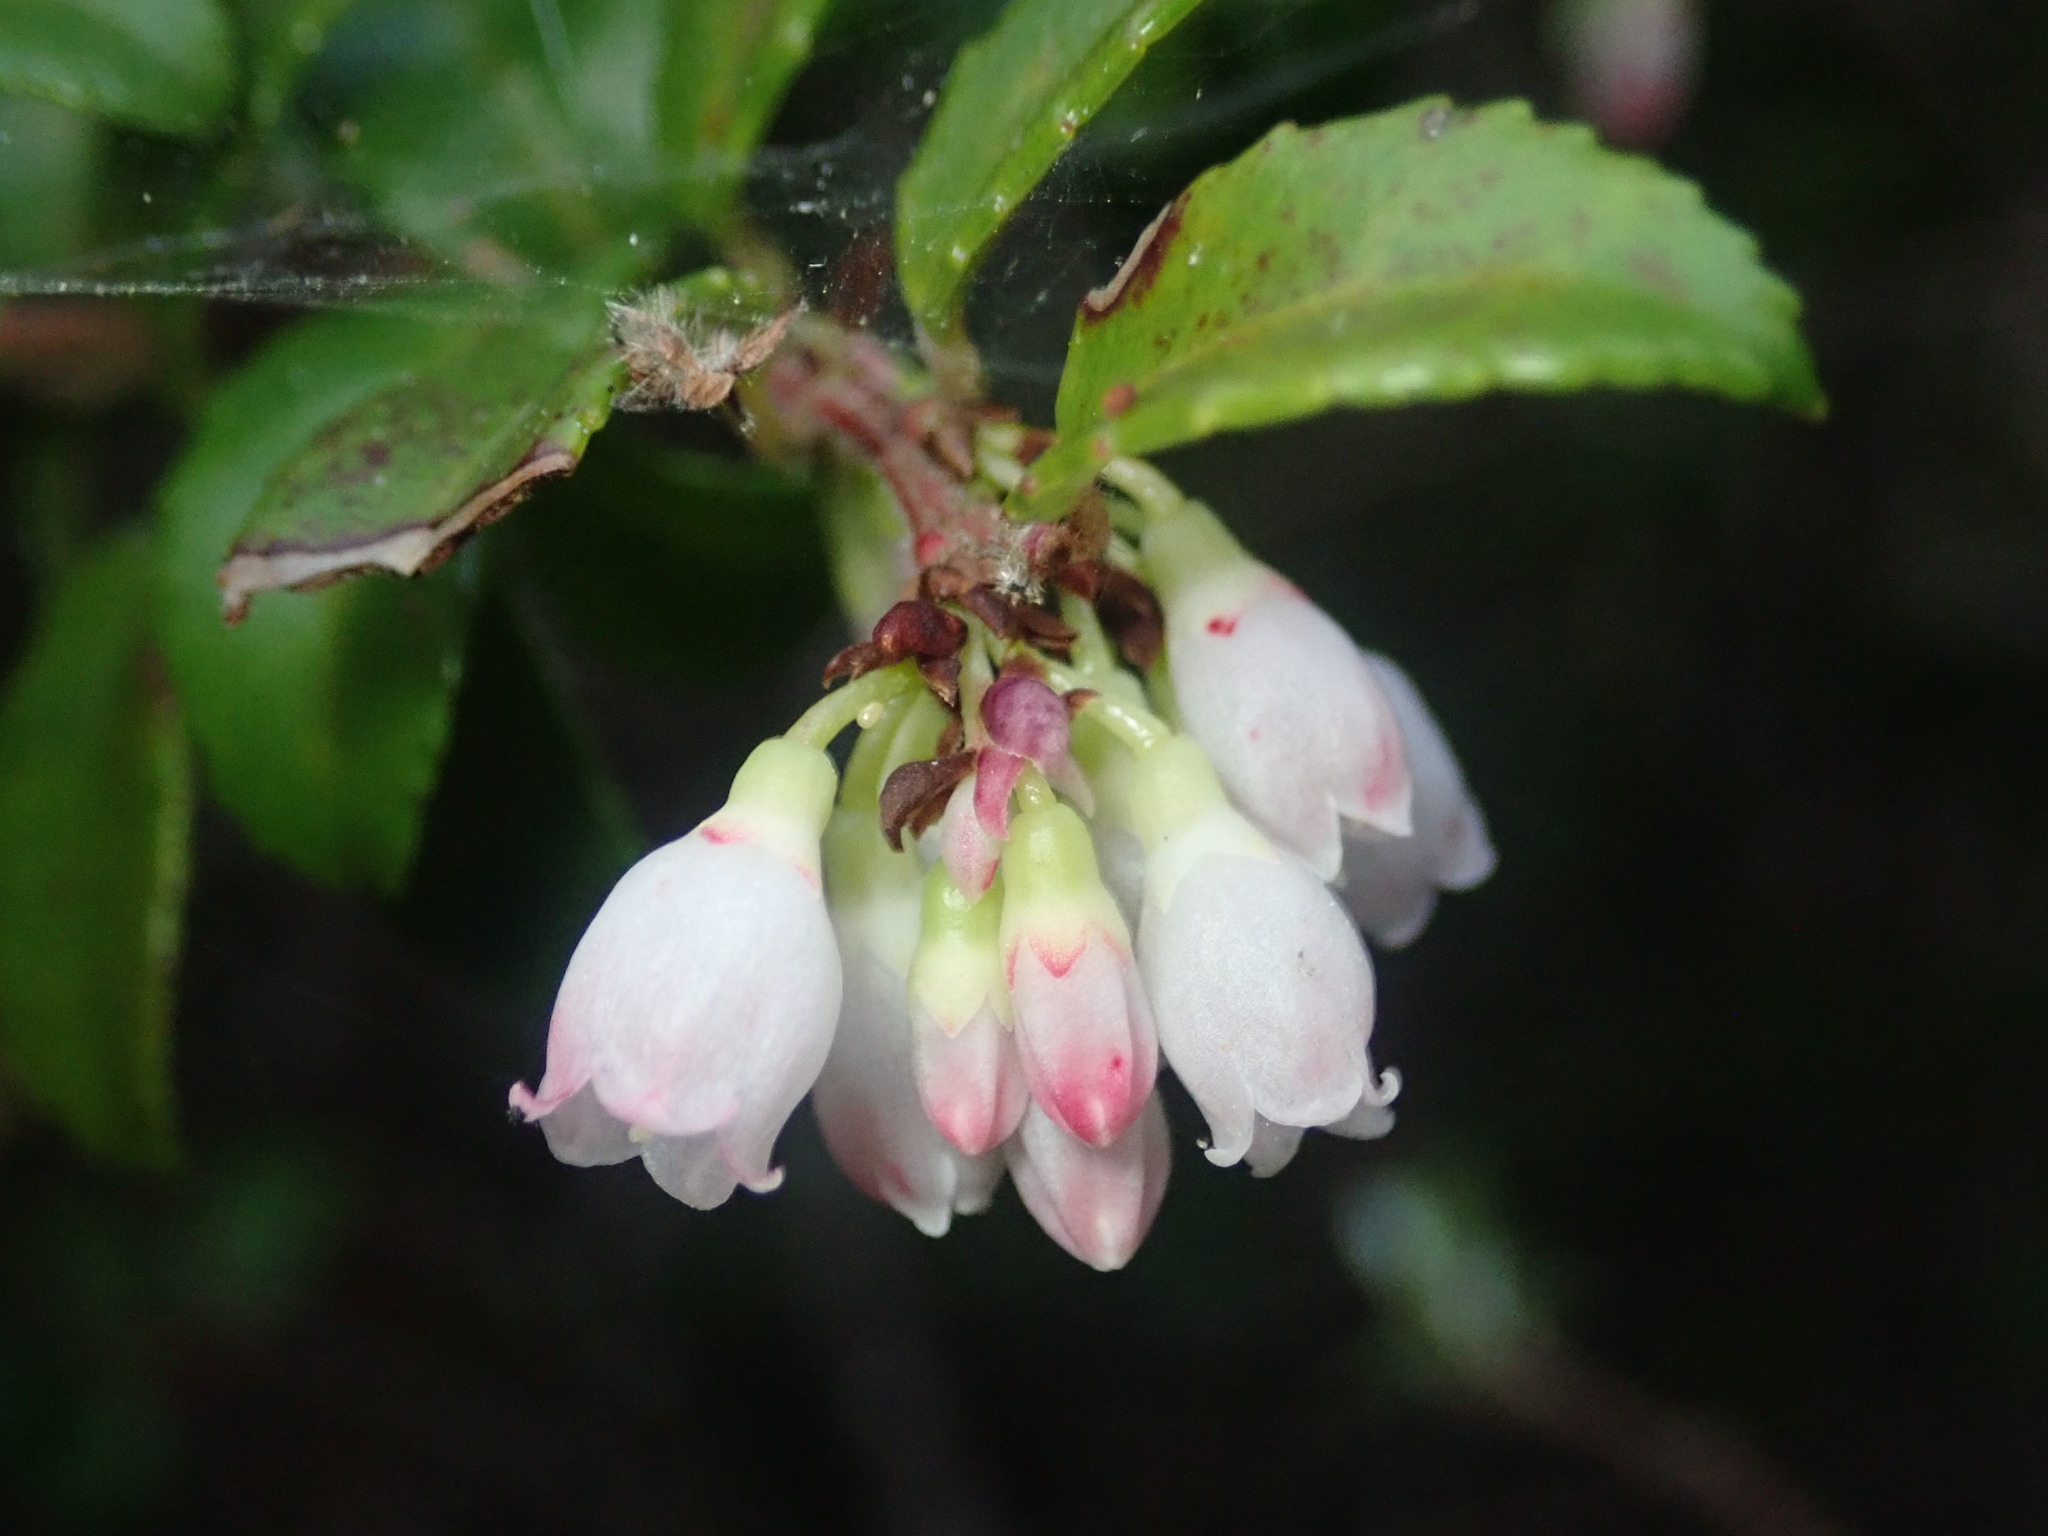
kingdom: Plantae
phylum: Tracheophyta
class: Magnoliopsida
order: Ericales
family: Ericaceae
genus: Vaccinium
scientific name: Vaccinium ovatum
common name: California-huckleberry
